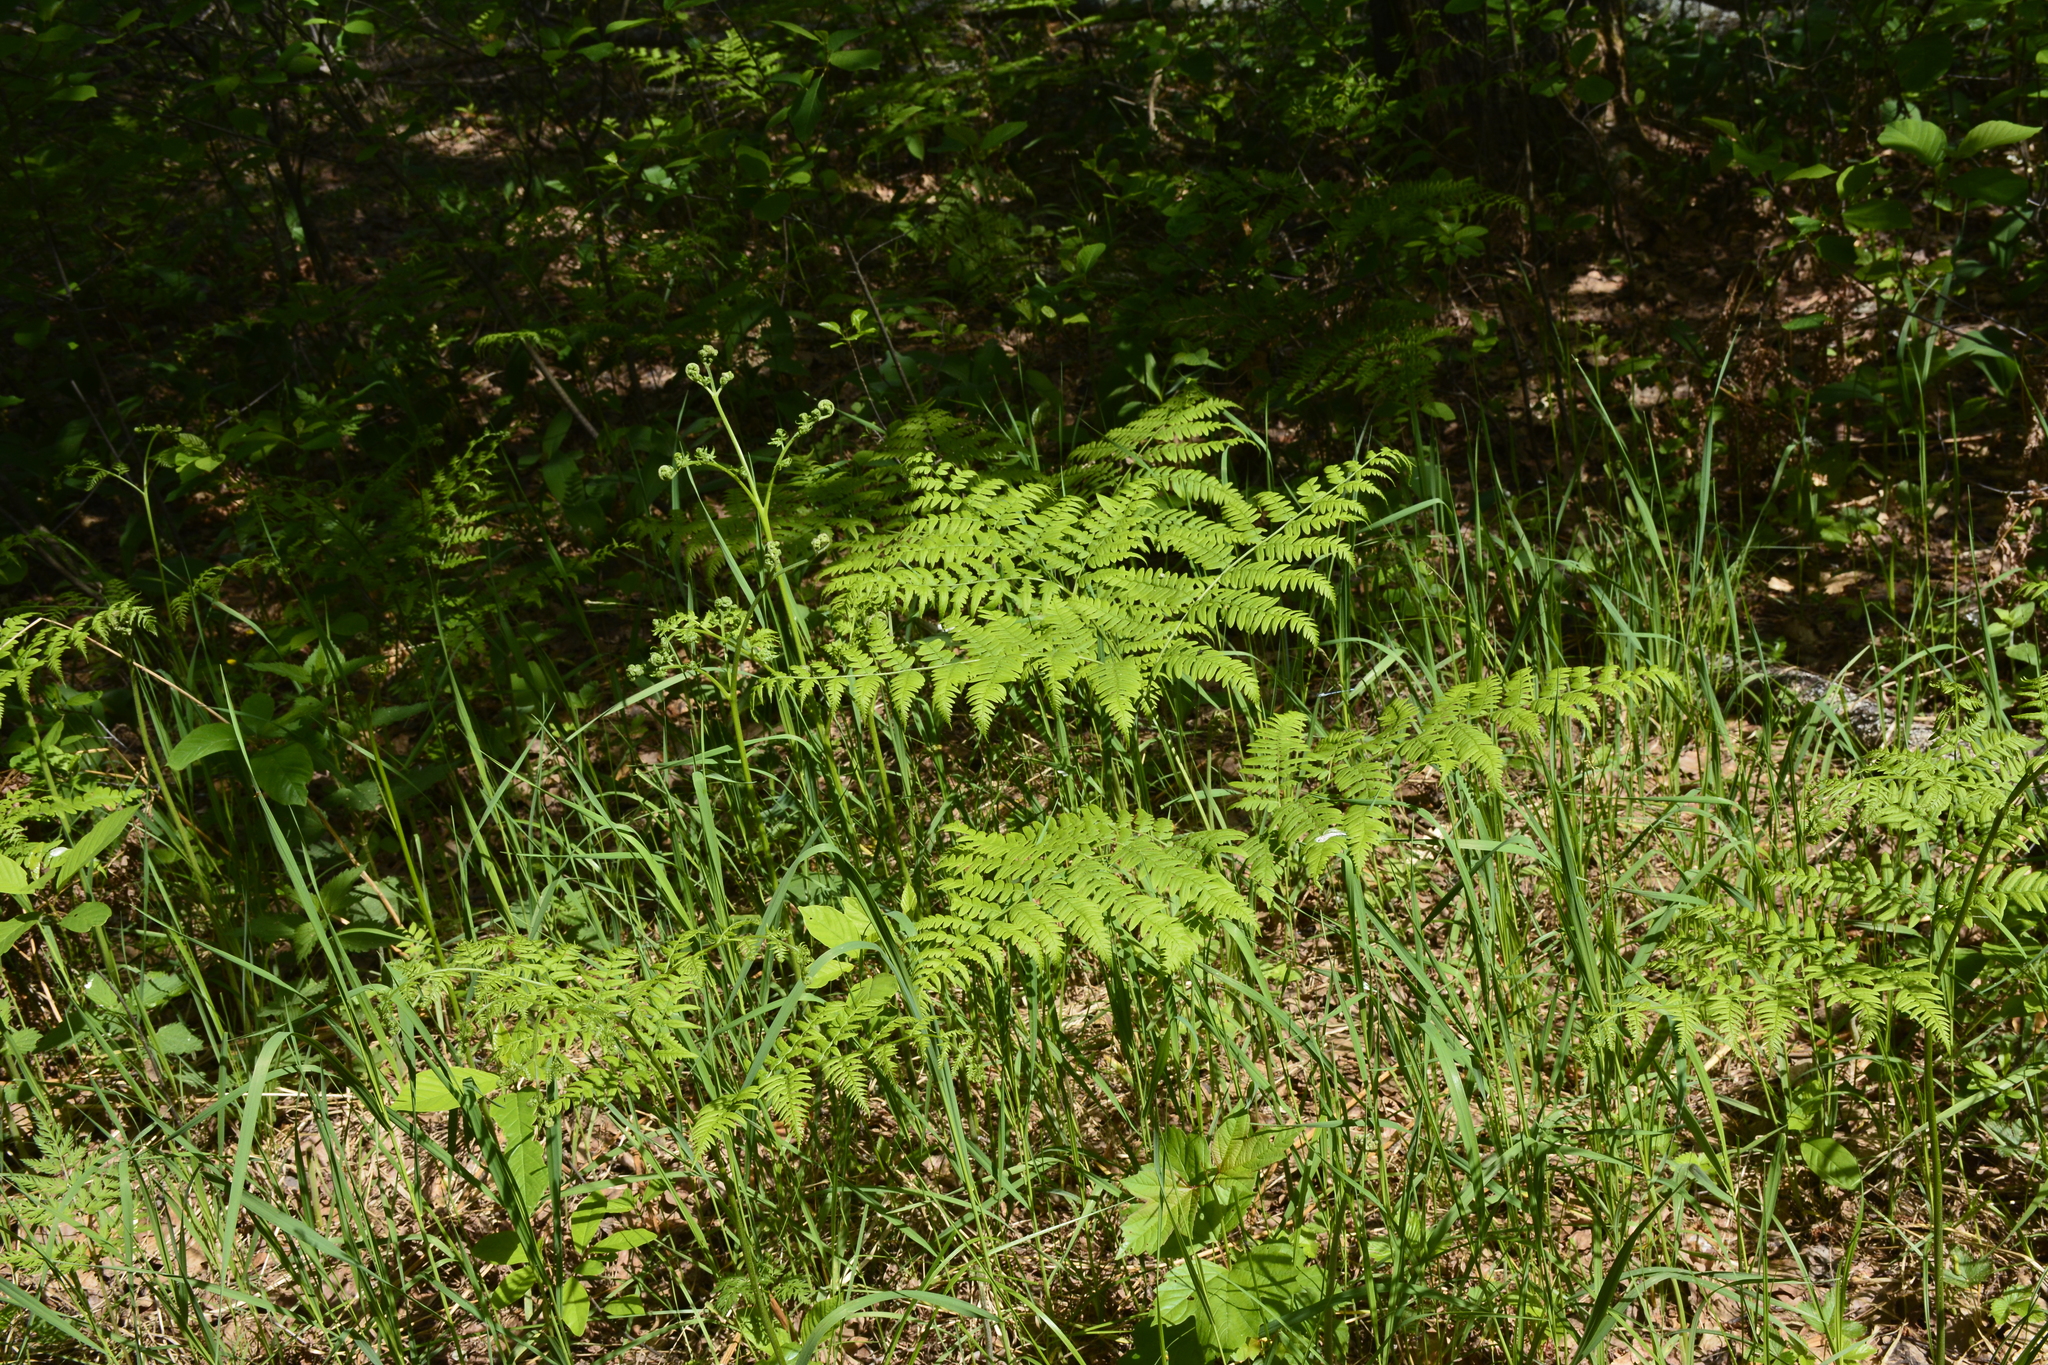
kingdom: Plantae
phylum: Tracheophyta
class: Polypodiopsida
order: Polypodiales
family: Dennstaedtiaceae
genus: Pteridium
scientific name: Pteridium aquilinum
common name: Bracken
